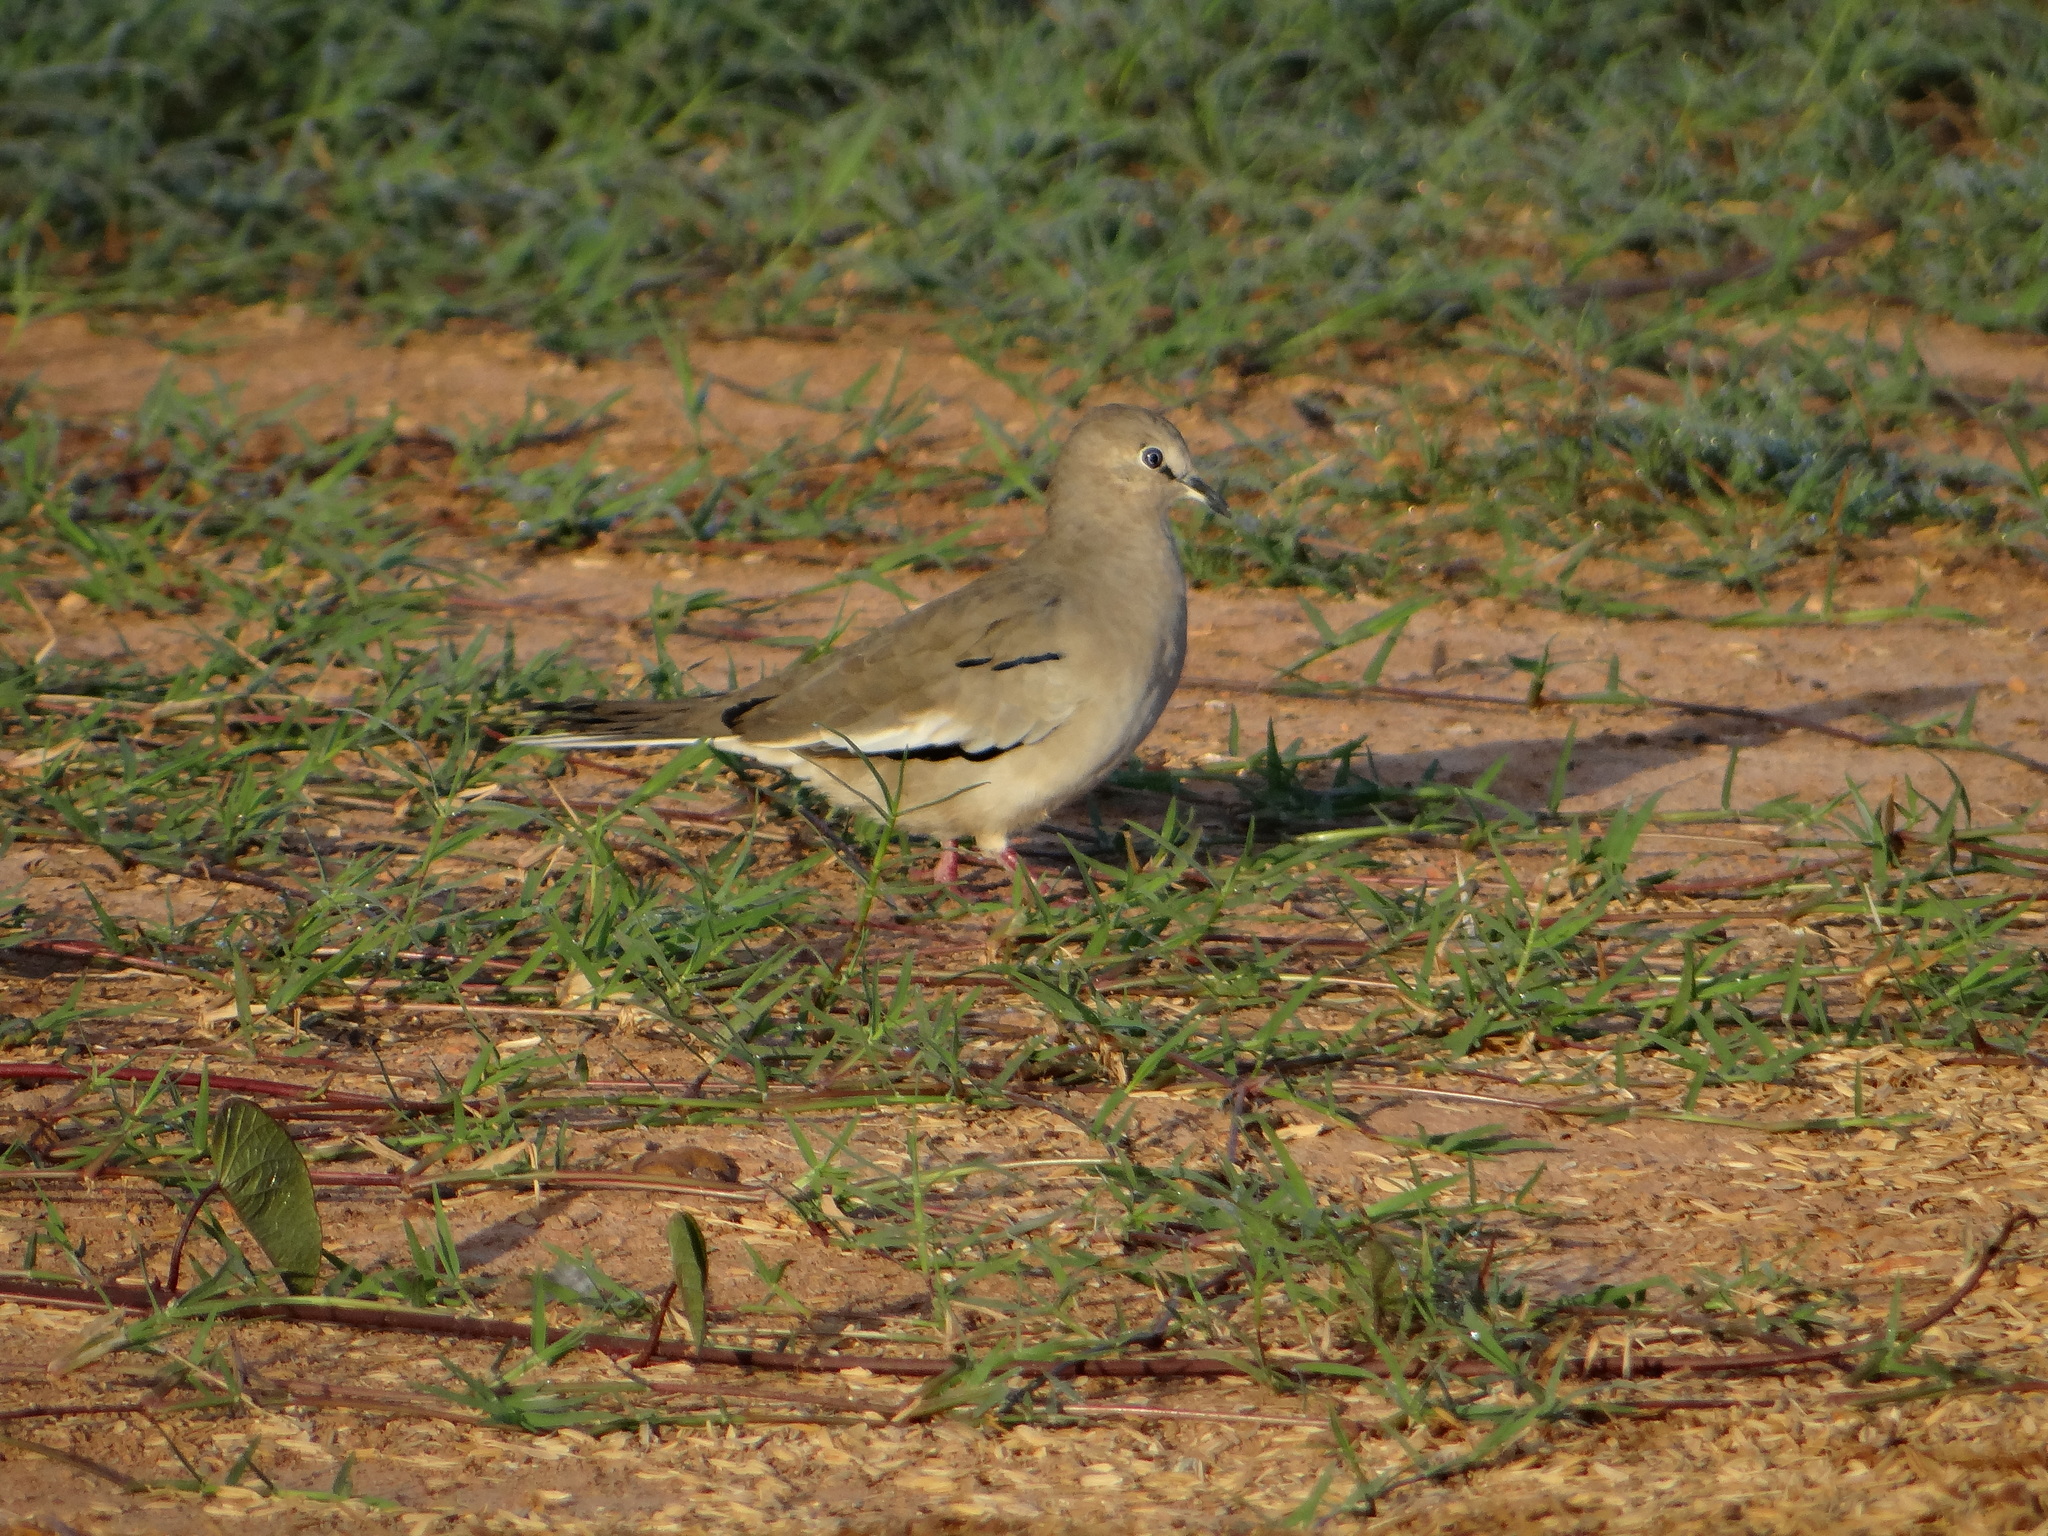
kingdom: Animalia
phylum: Chordata
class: Aves
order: Columbiformes
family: Columbidae
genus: Columbina
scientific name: Columbina picui
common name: Picui ground dove
